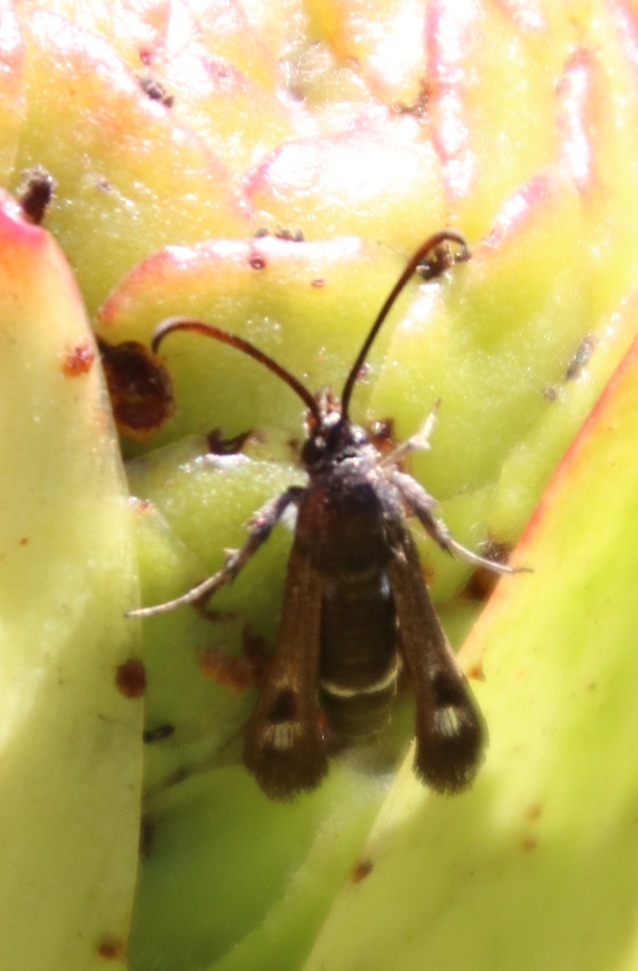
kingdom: Plantae
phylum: Tracheophyta
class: Magnoliopsida
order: Proteales
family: Proteaceae
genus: Leucadendron
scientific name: Leucadendron laureolum
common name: Golden sunshinebush
